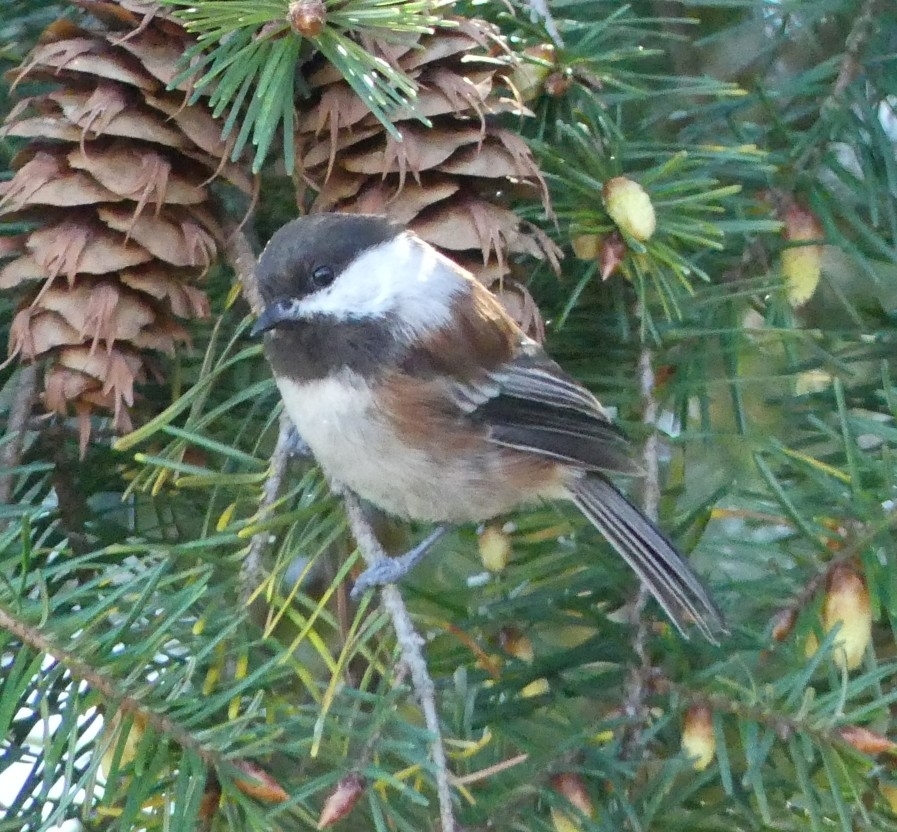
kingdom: Animalia
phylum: Chordata
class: Aves
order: Passeriformes
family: Paridae
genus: Poecile
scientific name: Poecile rufescens
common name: Chestnut-backed chickadee
